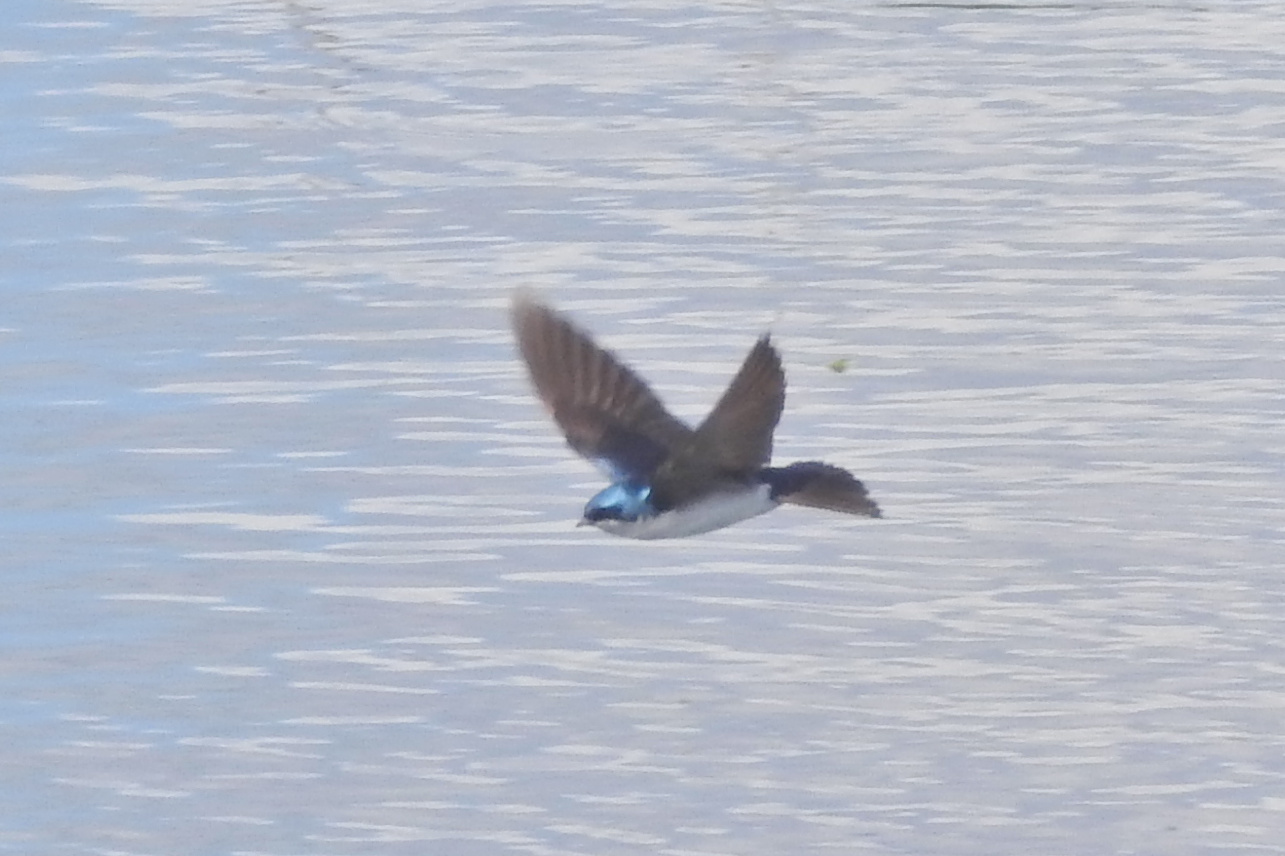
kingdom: Animalia
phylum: Chordata
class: Aves
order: Passeriformes
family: Hirundinidae
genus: Tachycineta
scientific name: Tachycineta bicolor
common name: Tree swallow
